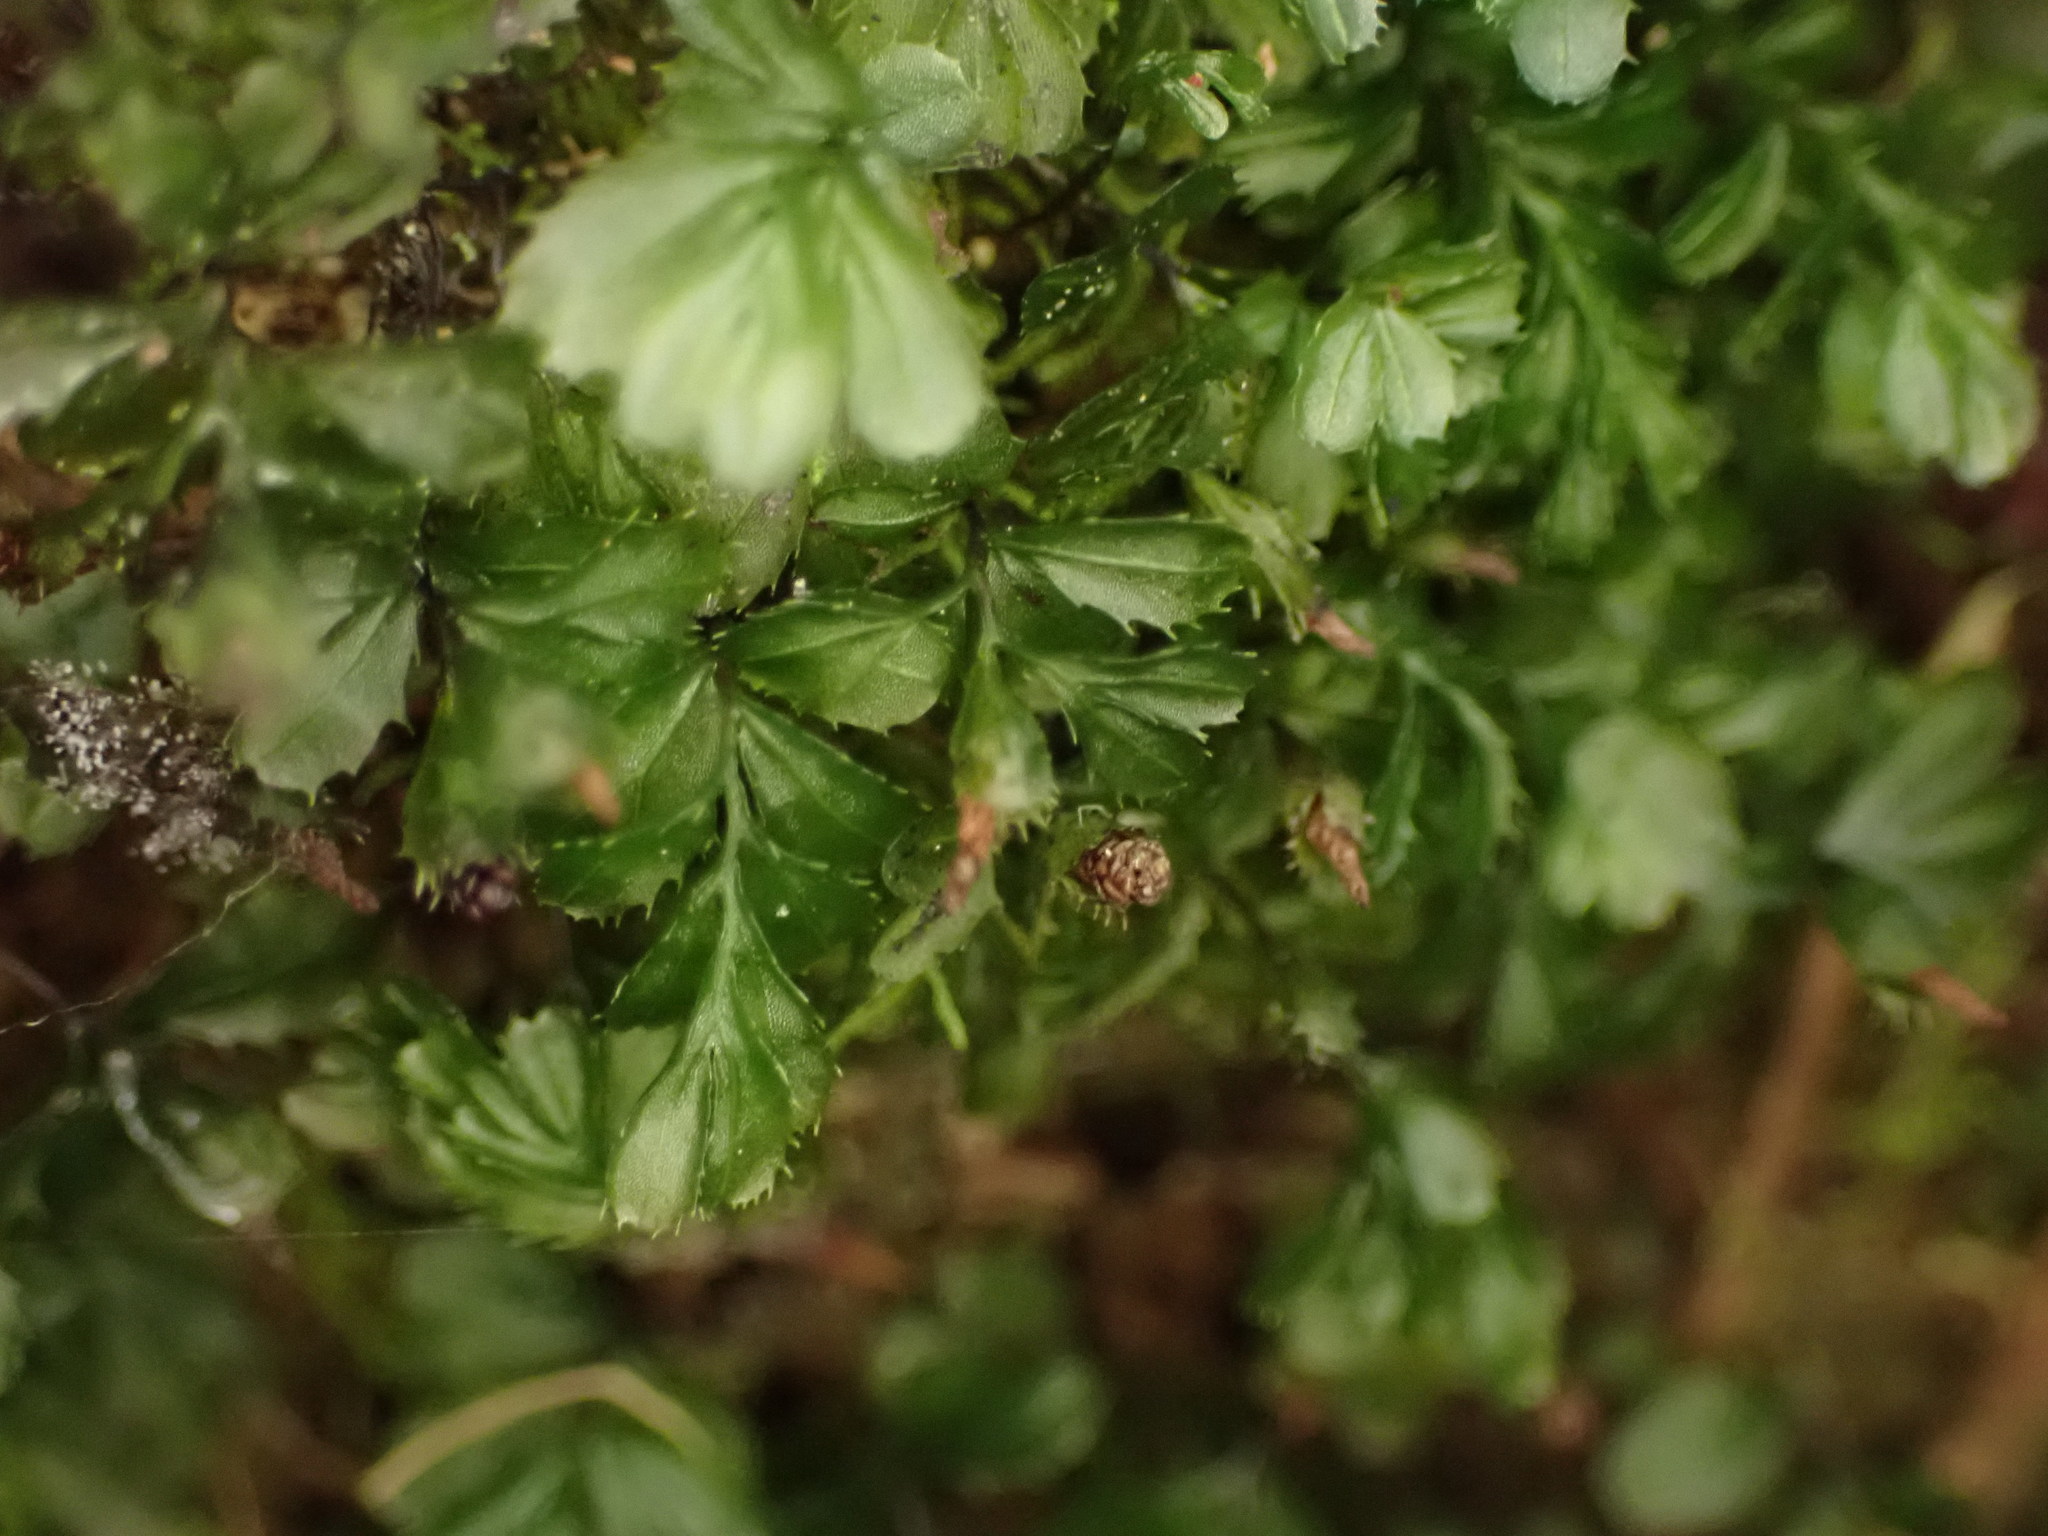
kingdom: Plantae
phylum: Tracheophyta
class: Polypodiopsida
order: Hymenophyllales
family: Hymenophyllaceae
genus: Hymenophyllum
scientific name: Hymenophyllum minimum
